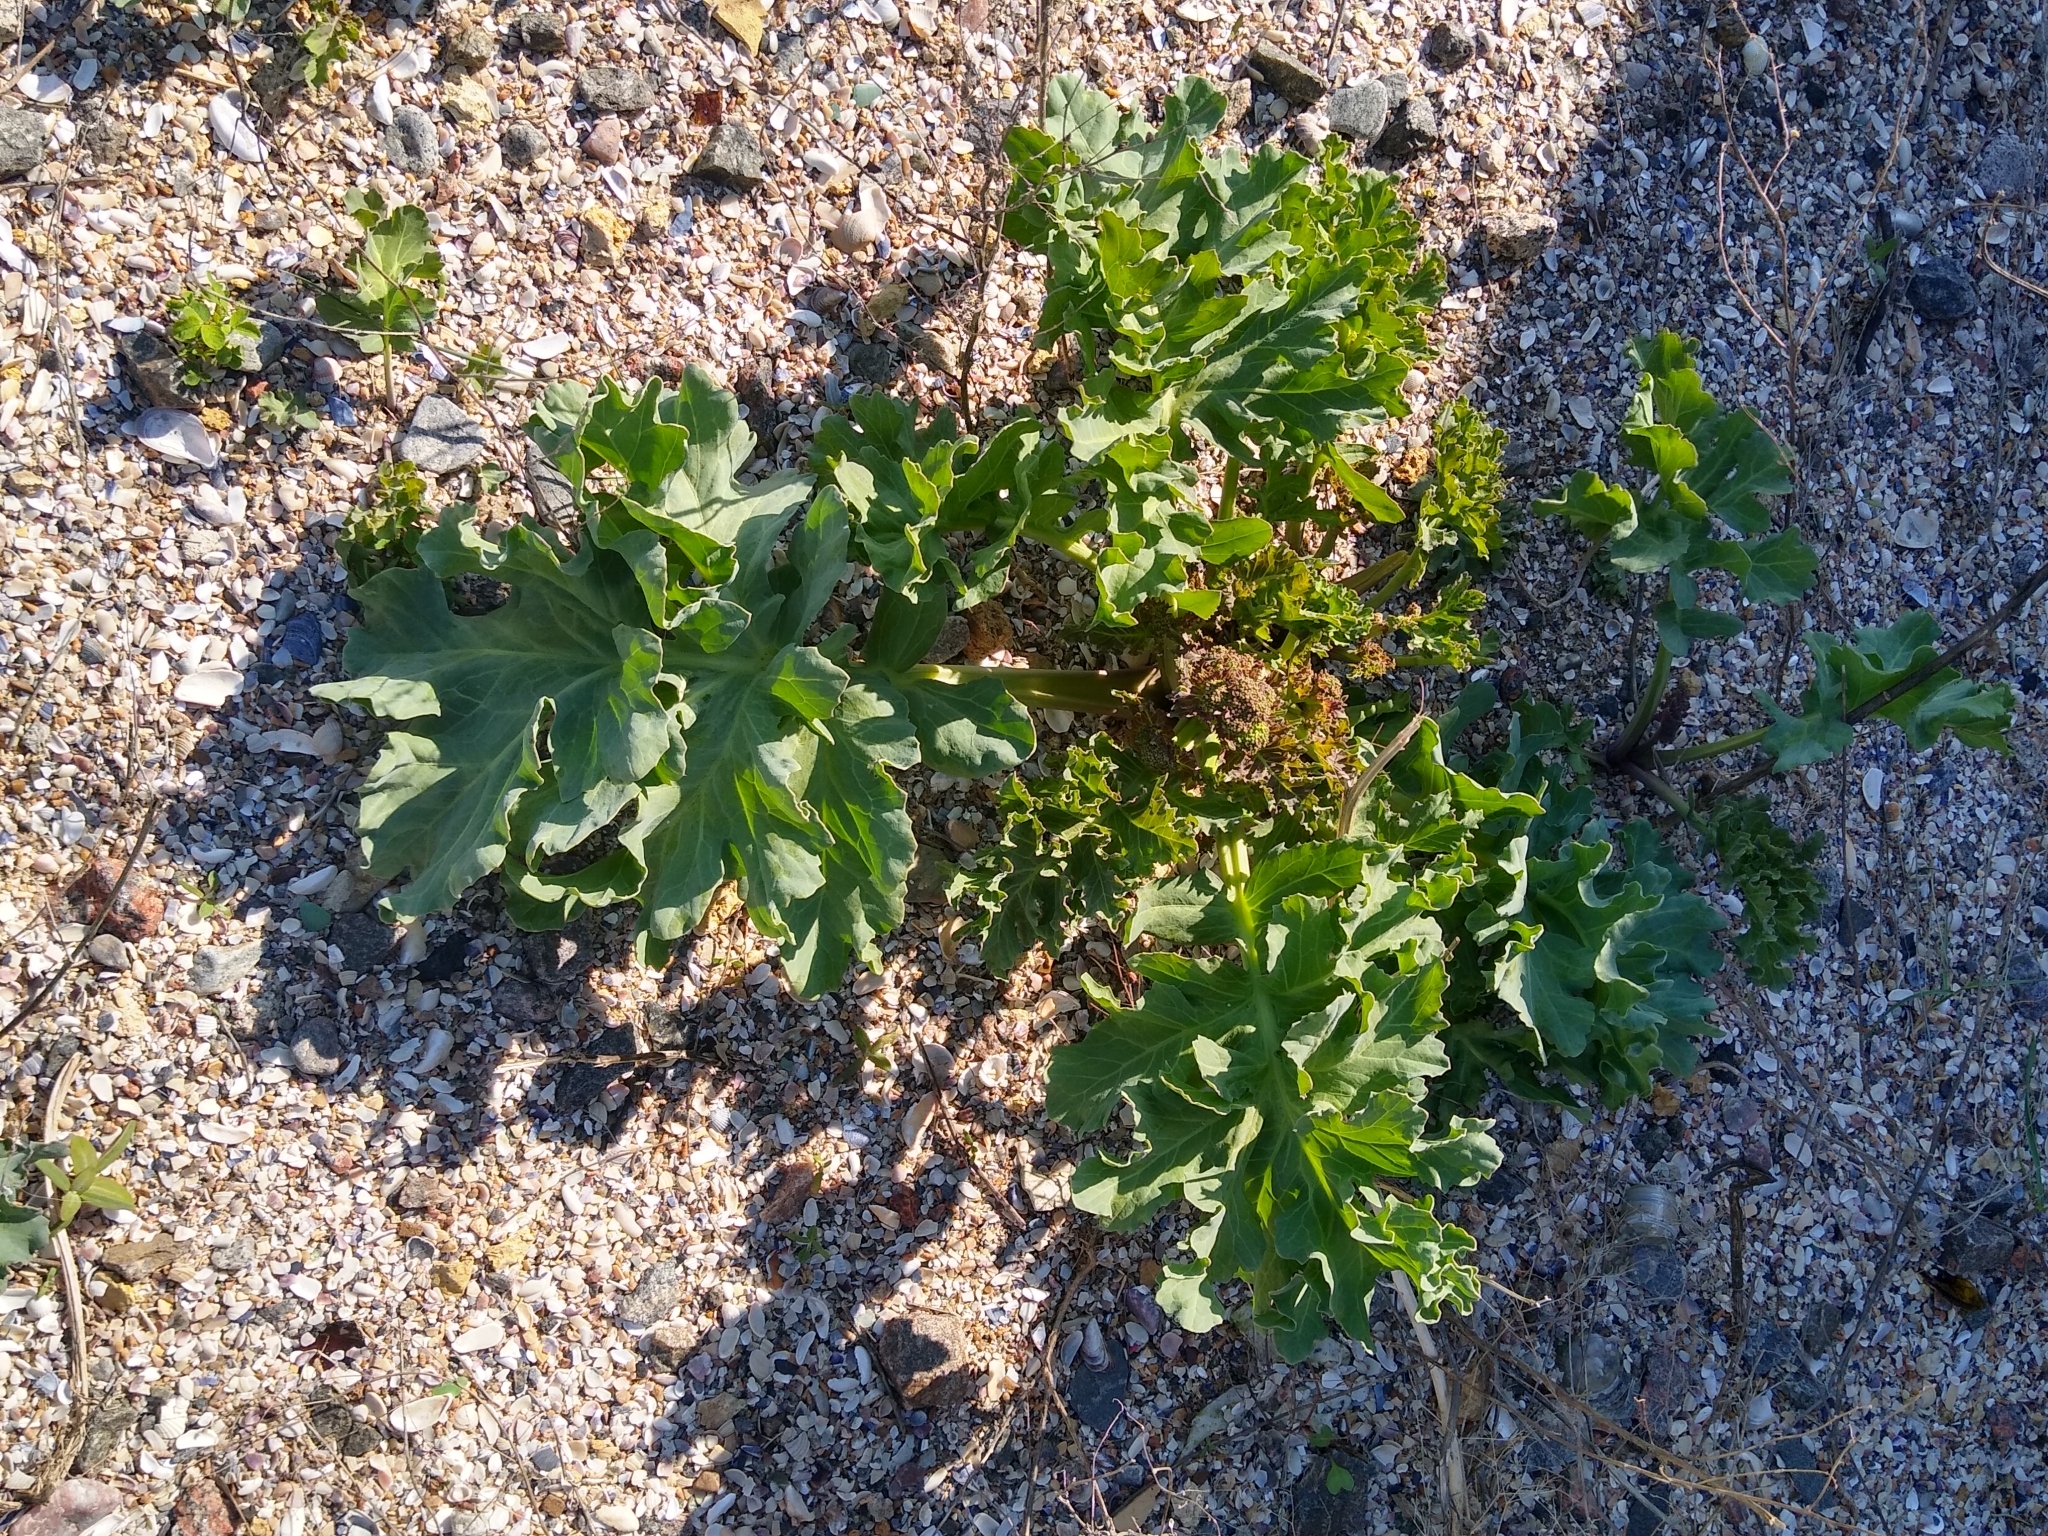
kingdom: Plantae
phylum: Tracheophyta
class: Magnoliopsida
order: Brassicales
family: Brassicaceae
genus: Crambe
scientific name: Crambe maritima
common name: Sea-kale
